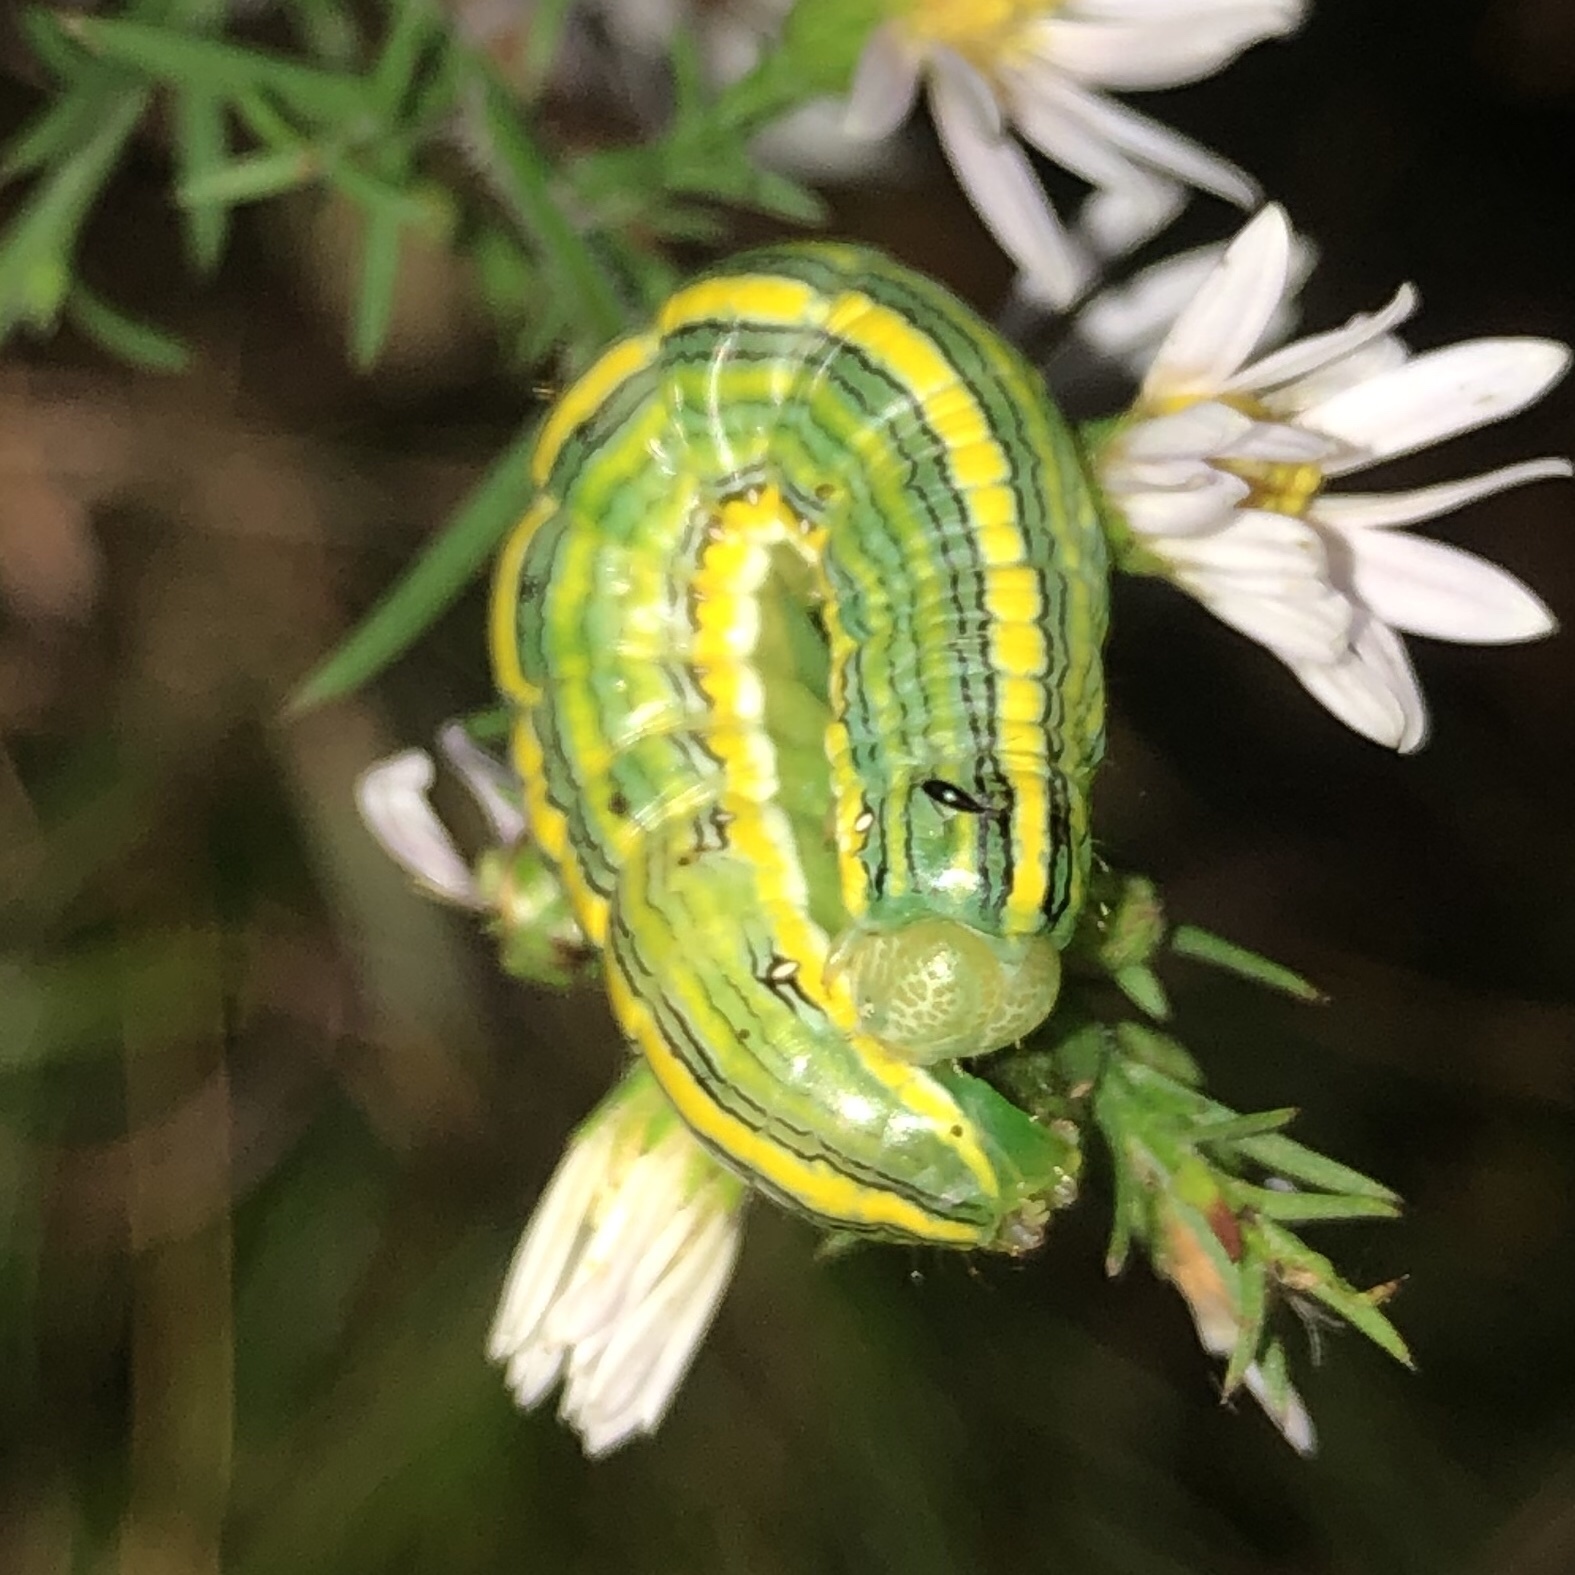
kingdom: Animalia
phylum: Arthropoda
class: Insecta
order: Lepidoptera
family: Noctuidae
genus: Cucullia
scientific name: Cucullia asteroides
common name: Asteroid moth
